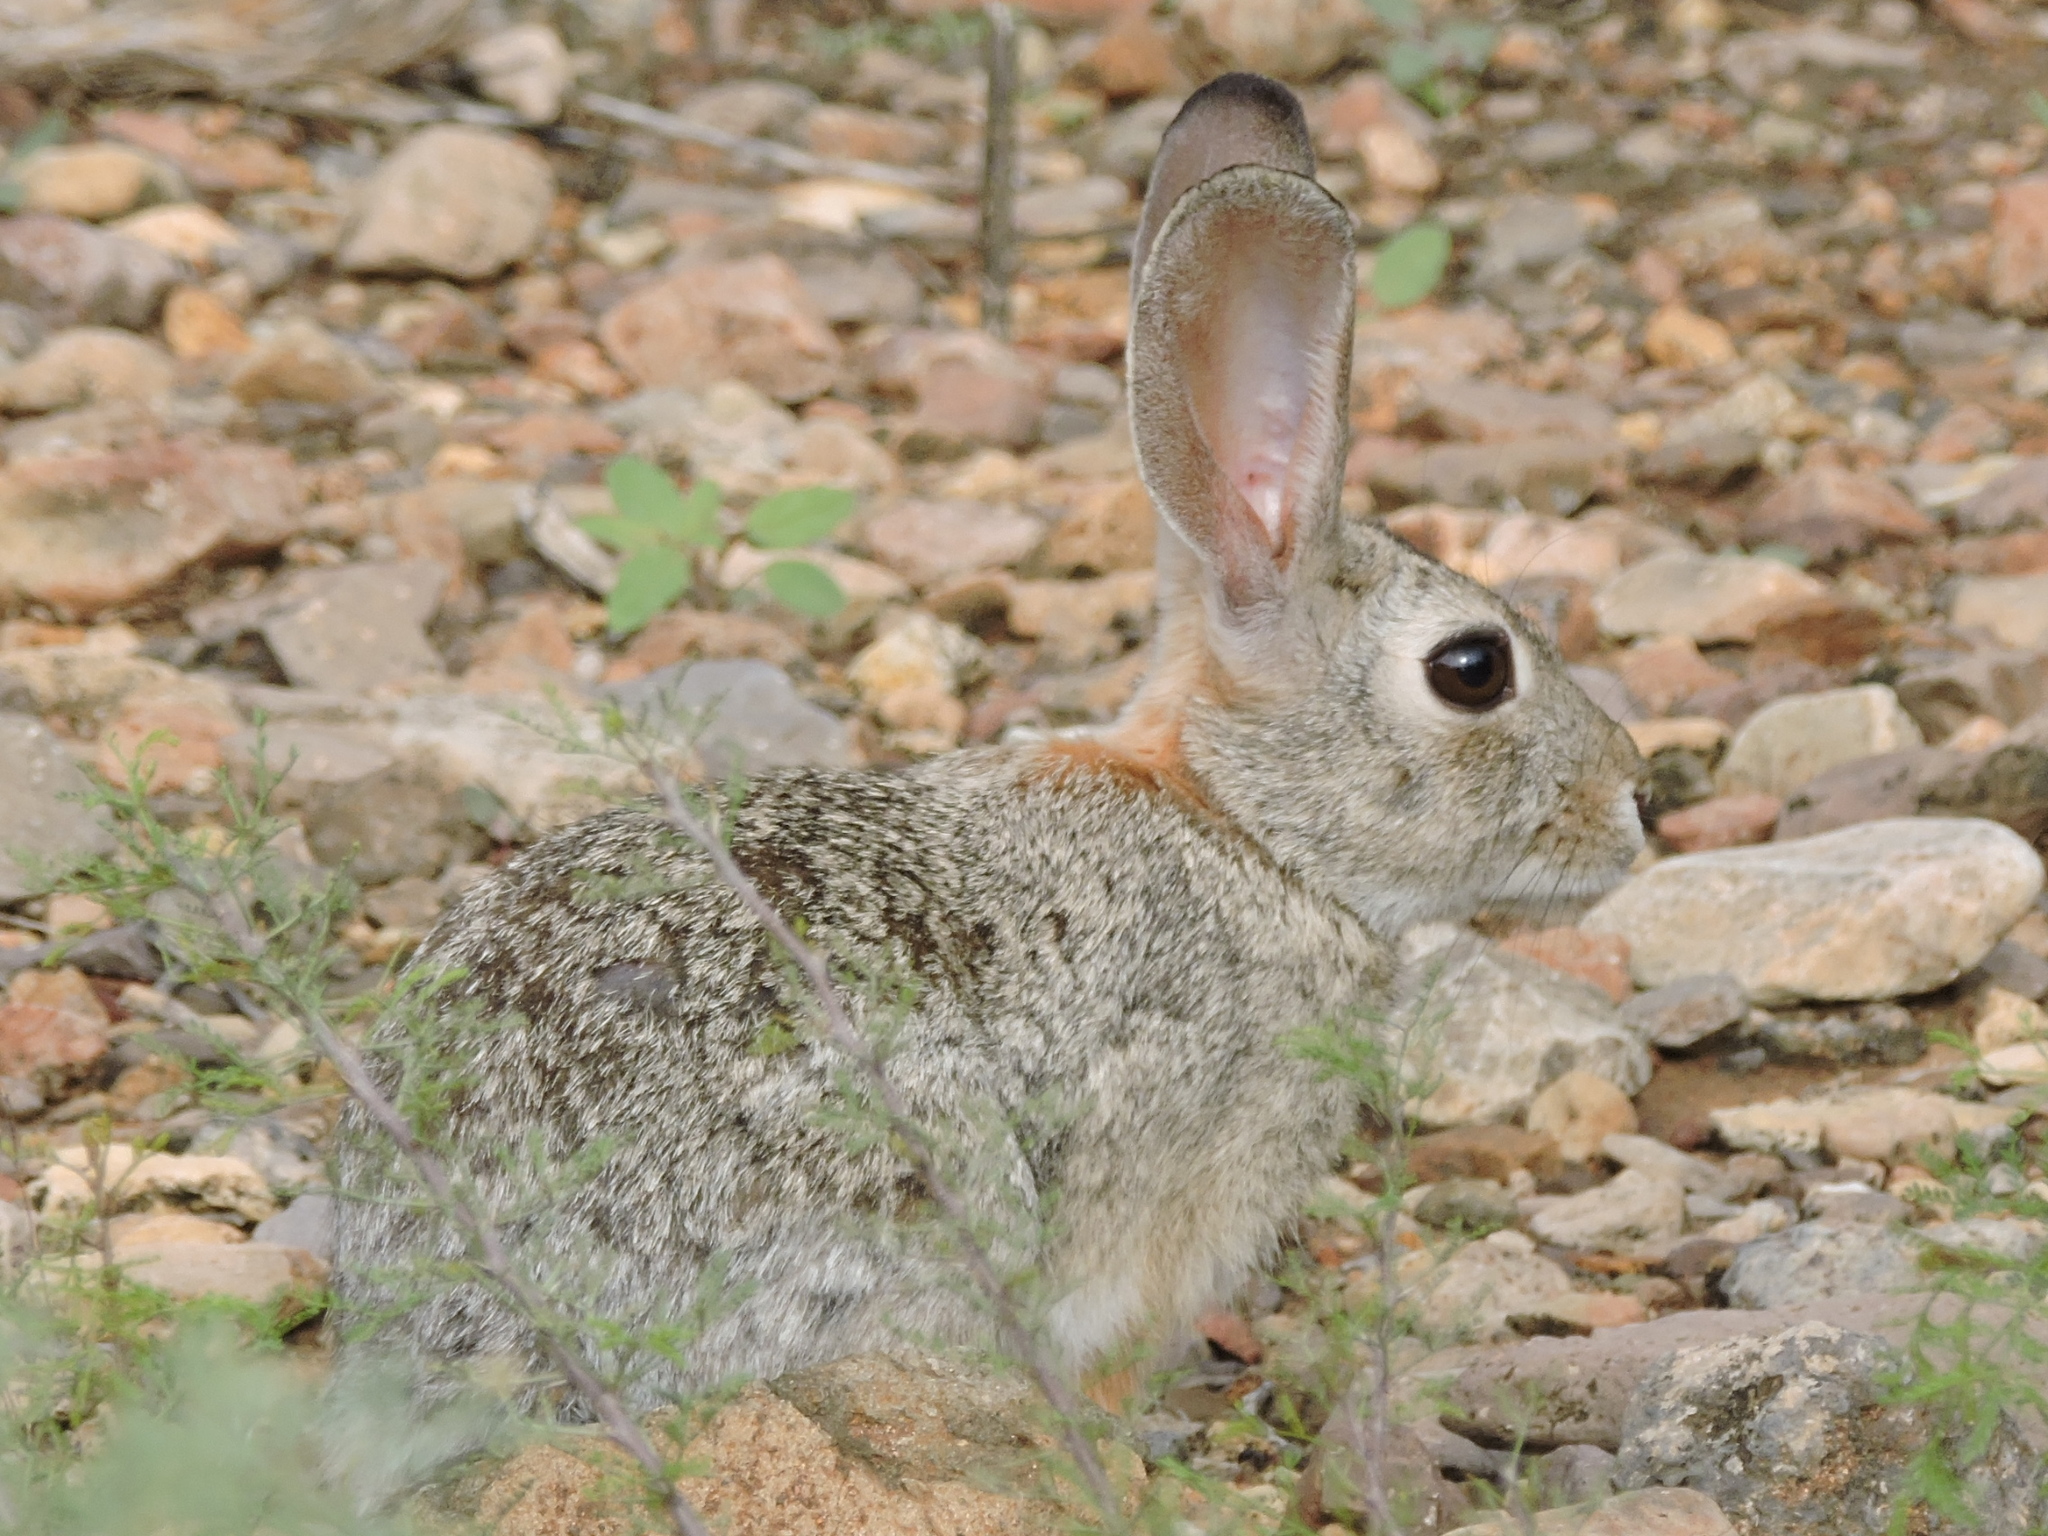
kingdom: Animalia
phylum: Chordata
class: Mammalia
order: Lagomorpha
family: Leporidae
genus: Sylvilagus
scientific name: Sylvilagus audubonii
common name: Desert cottontail
